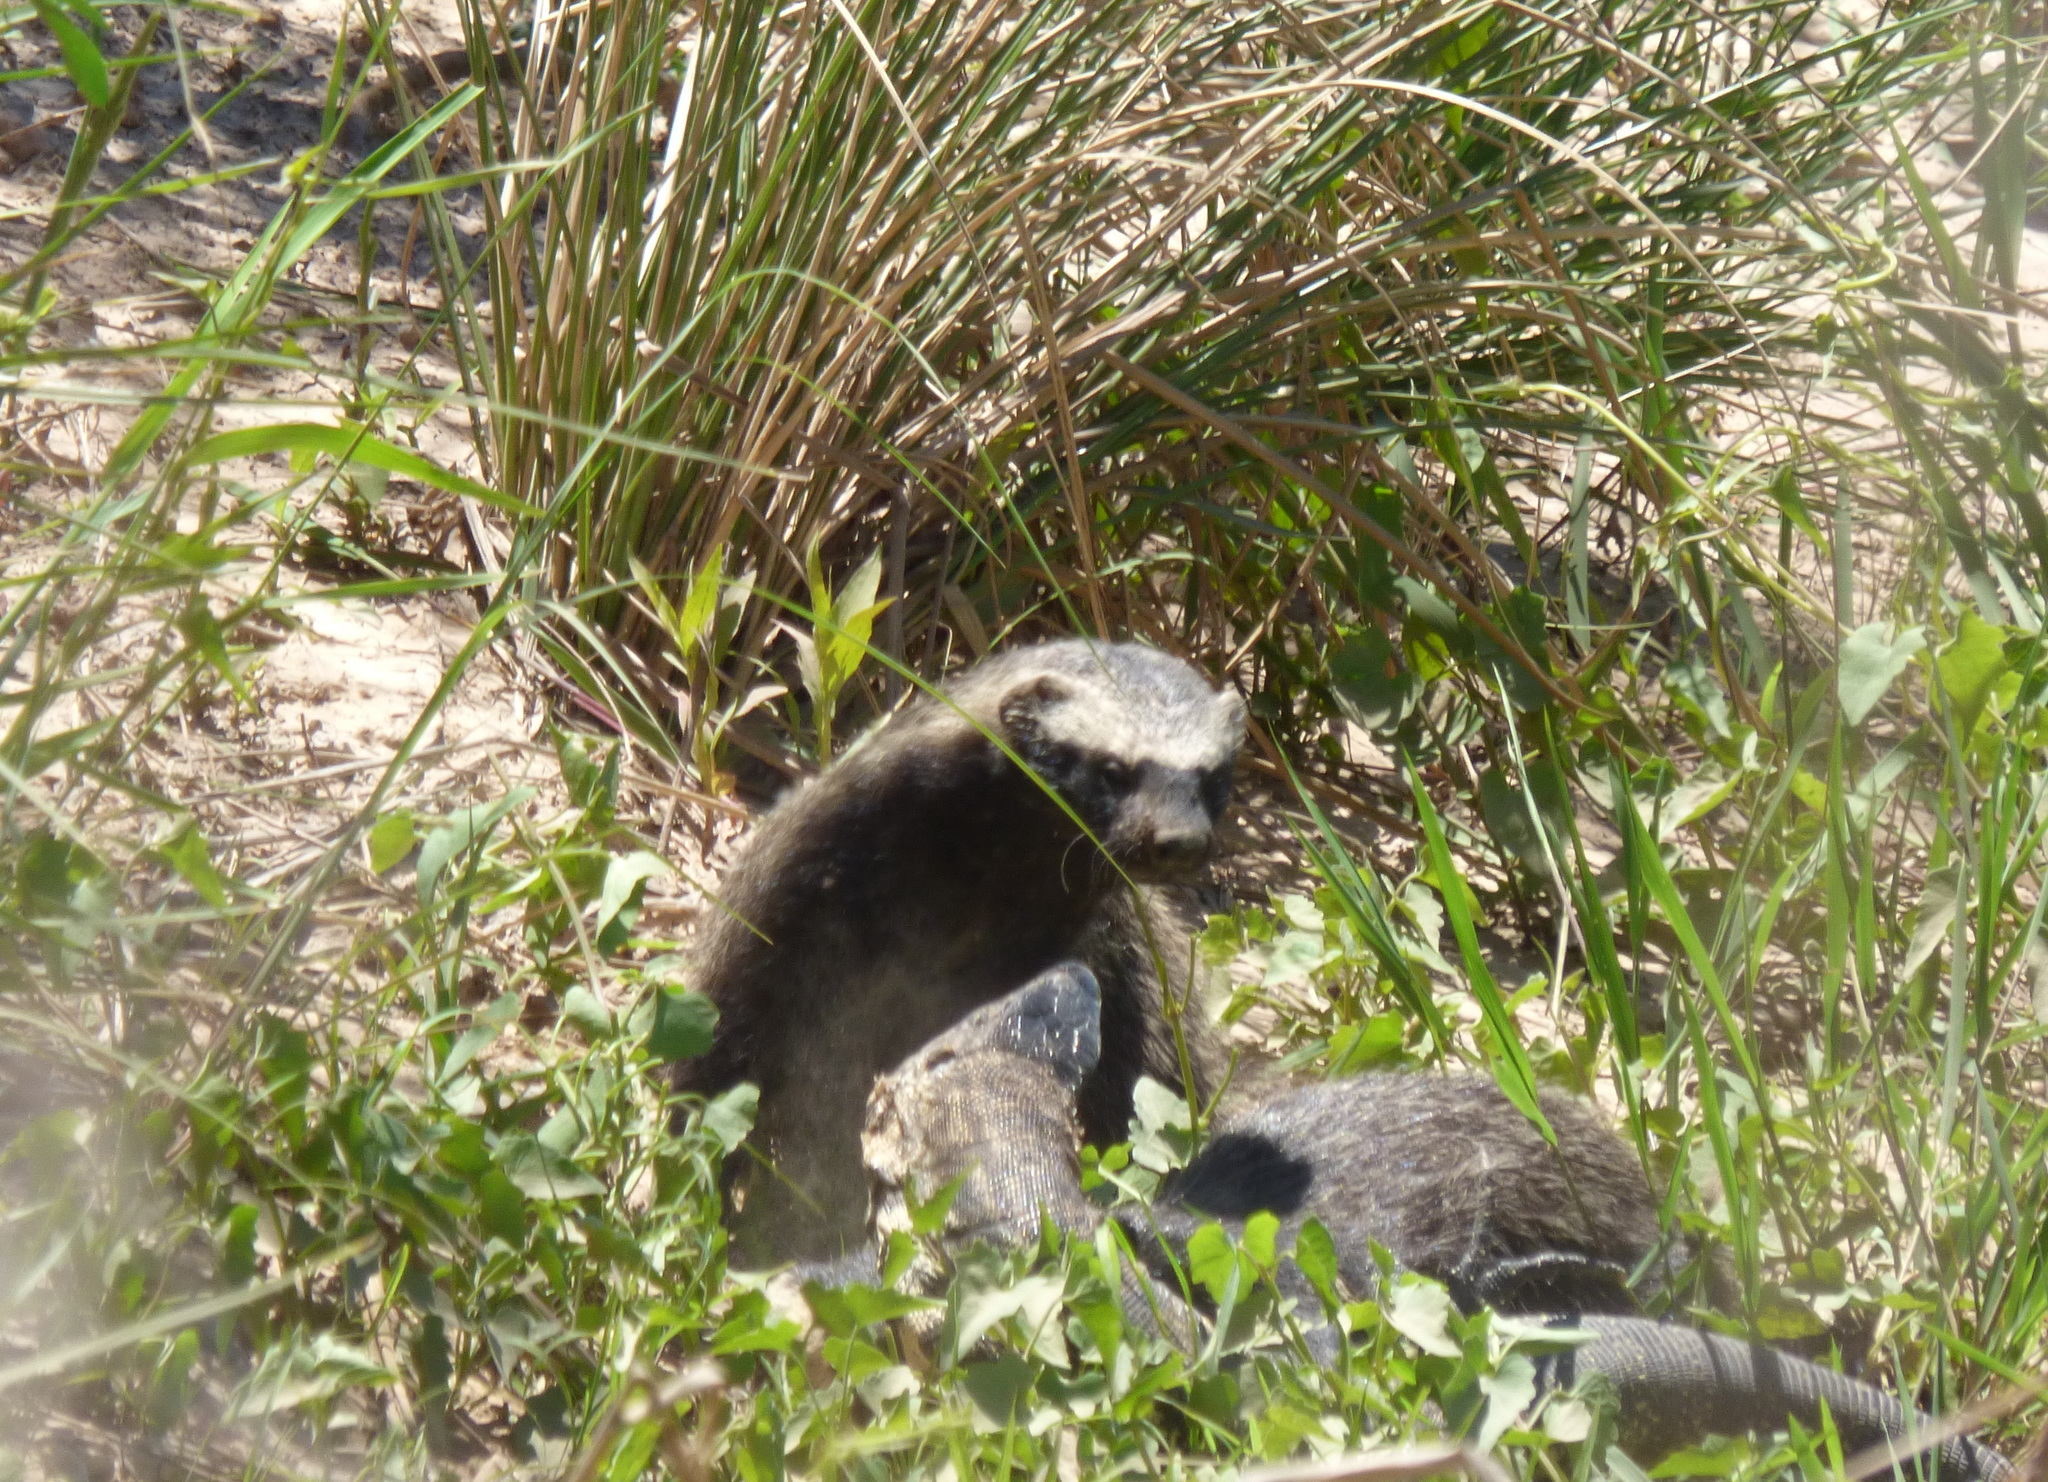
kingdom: Animalia
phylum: Chordata
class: Mammalia
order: Carnivora
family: Mustelidae
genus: Galictis
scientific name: Galictis cuja
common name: Lesser grison
